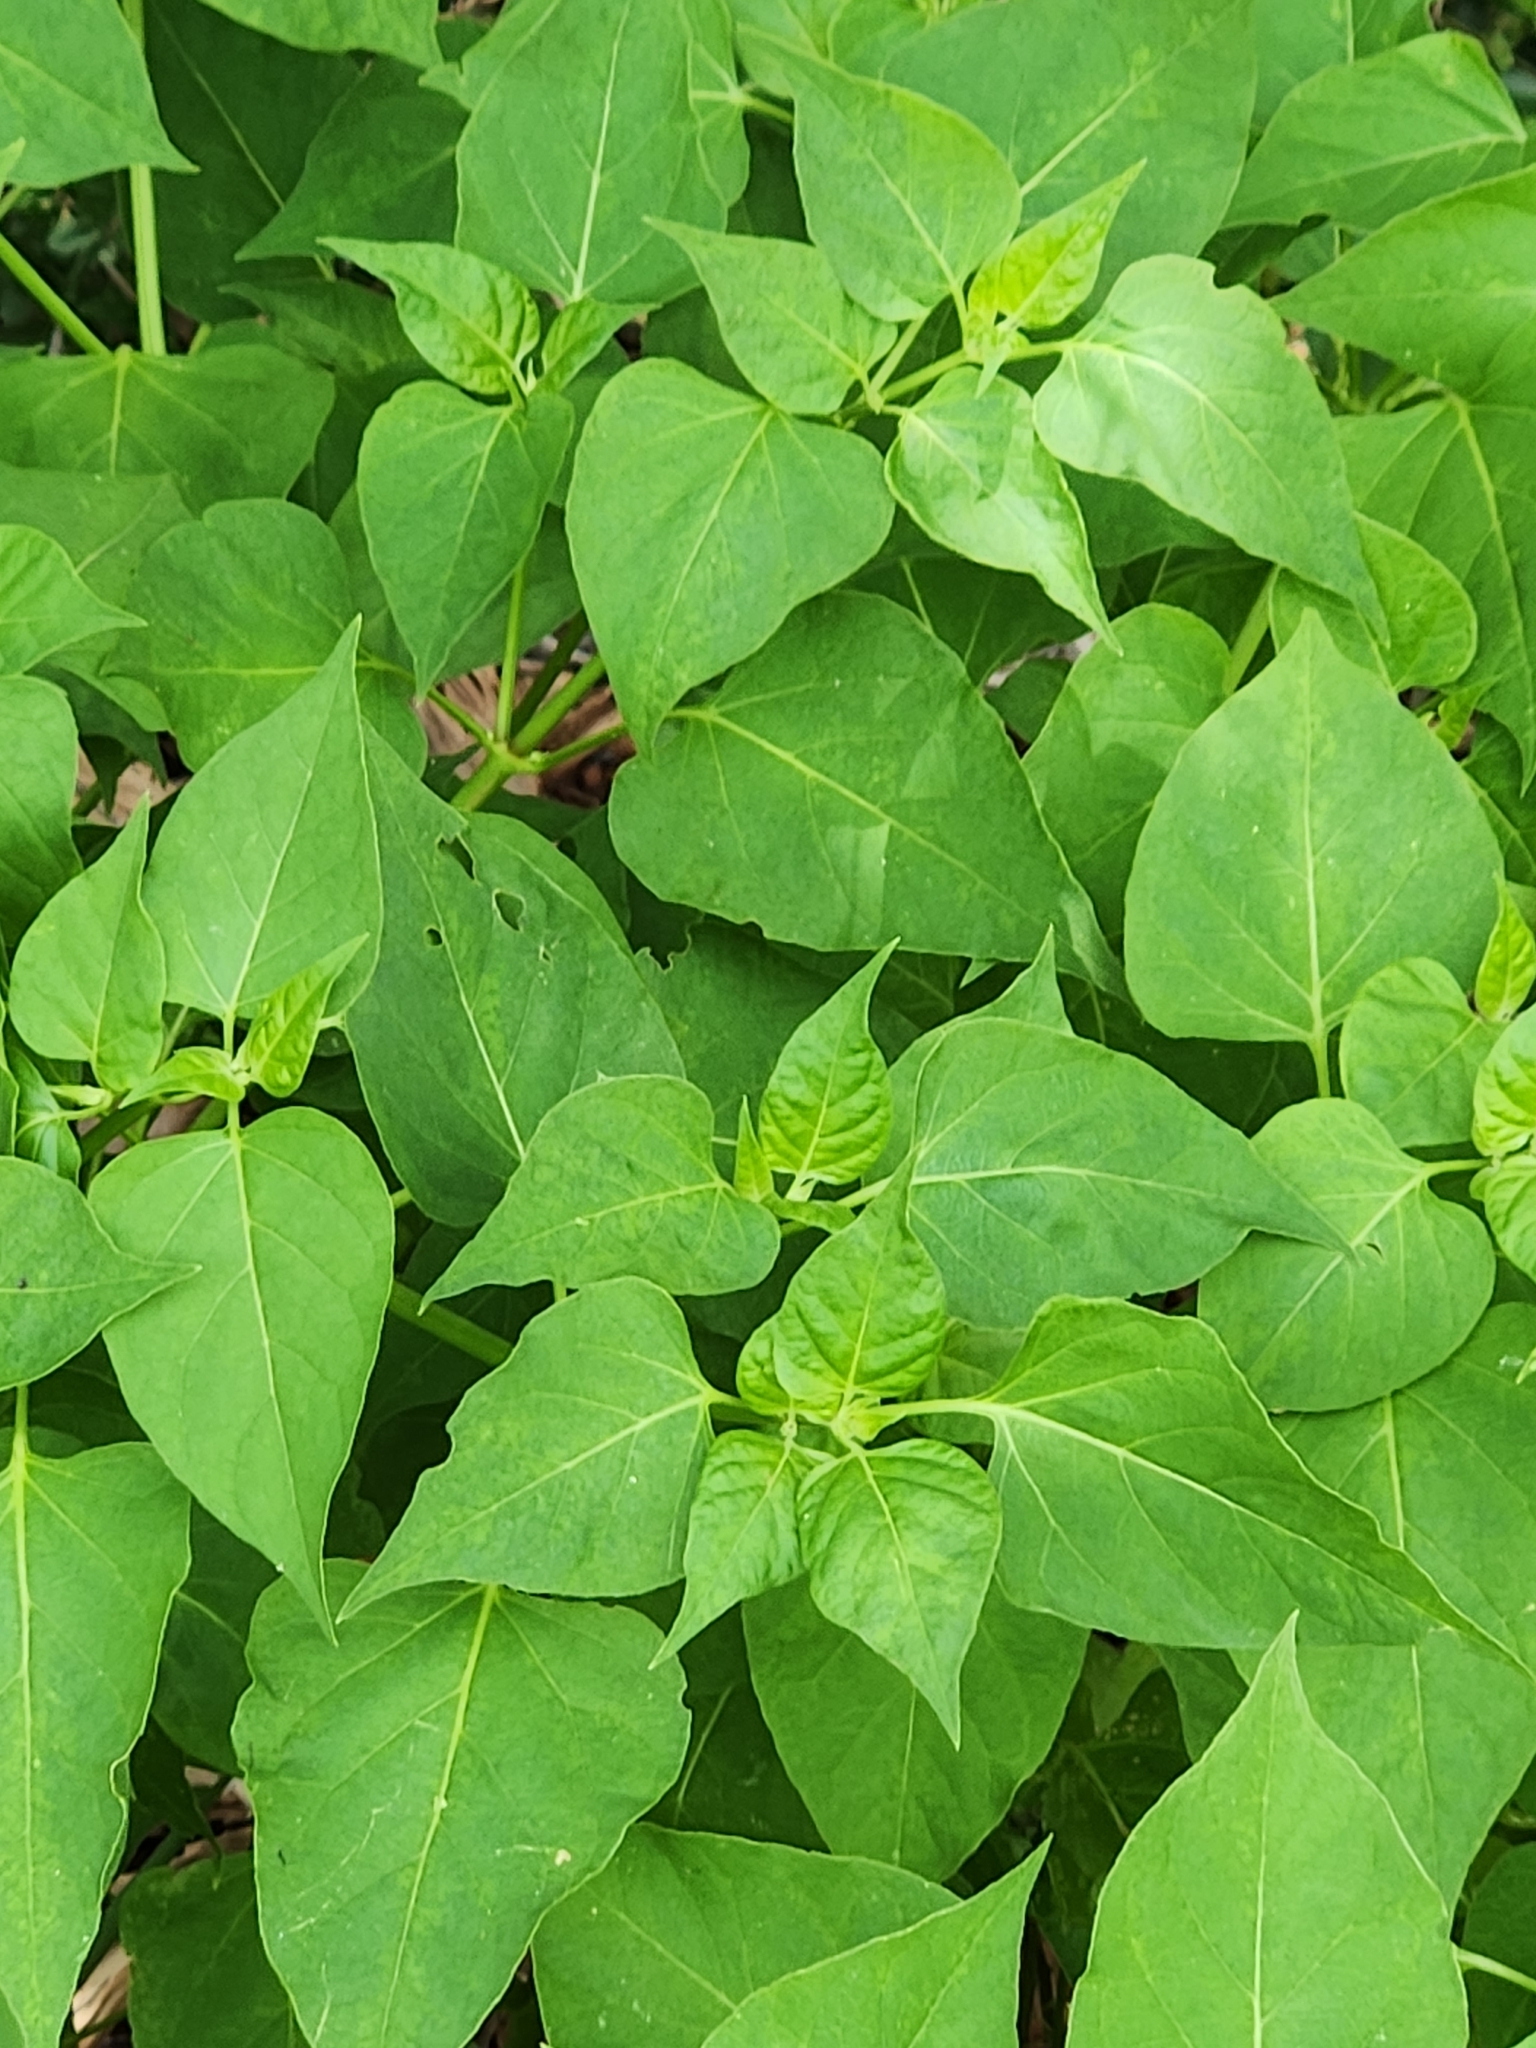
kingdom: Plantae
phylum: Tracheophyta
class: Magnoliopsida
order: Caryophyllales
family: Nyctaginaceae
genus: Mirabilis
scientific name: Mirabilis jalapa
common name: Marvel-of-peru
